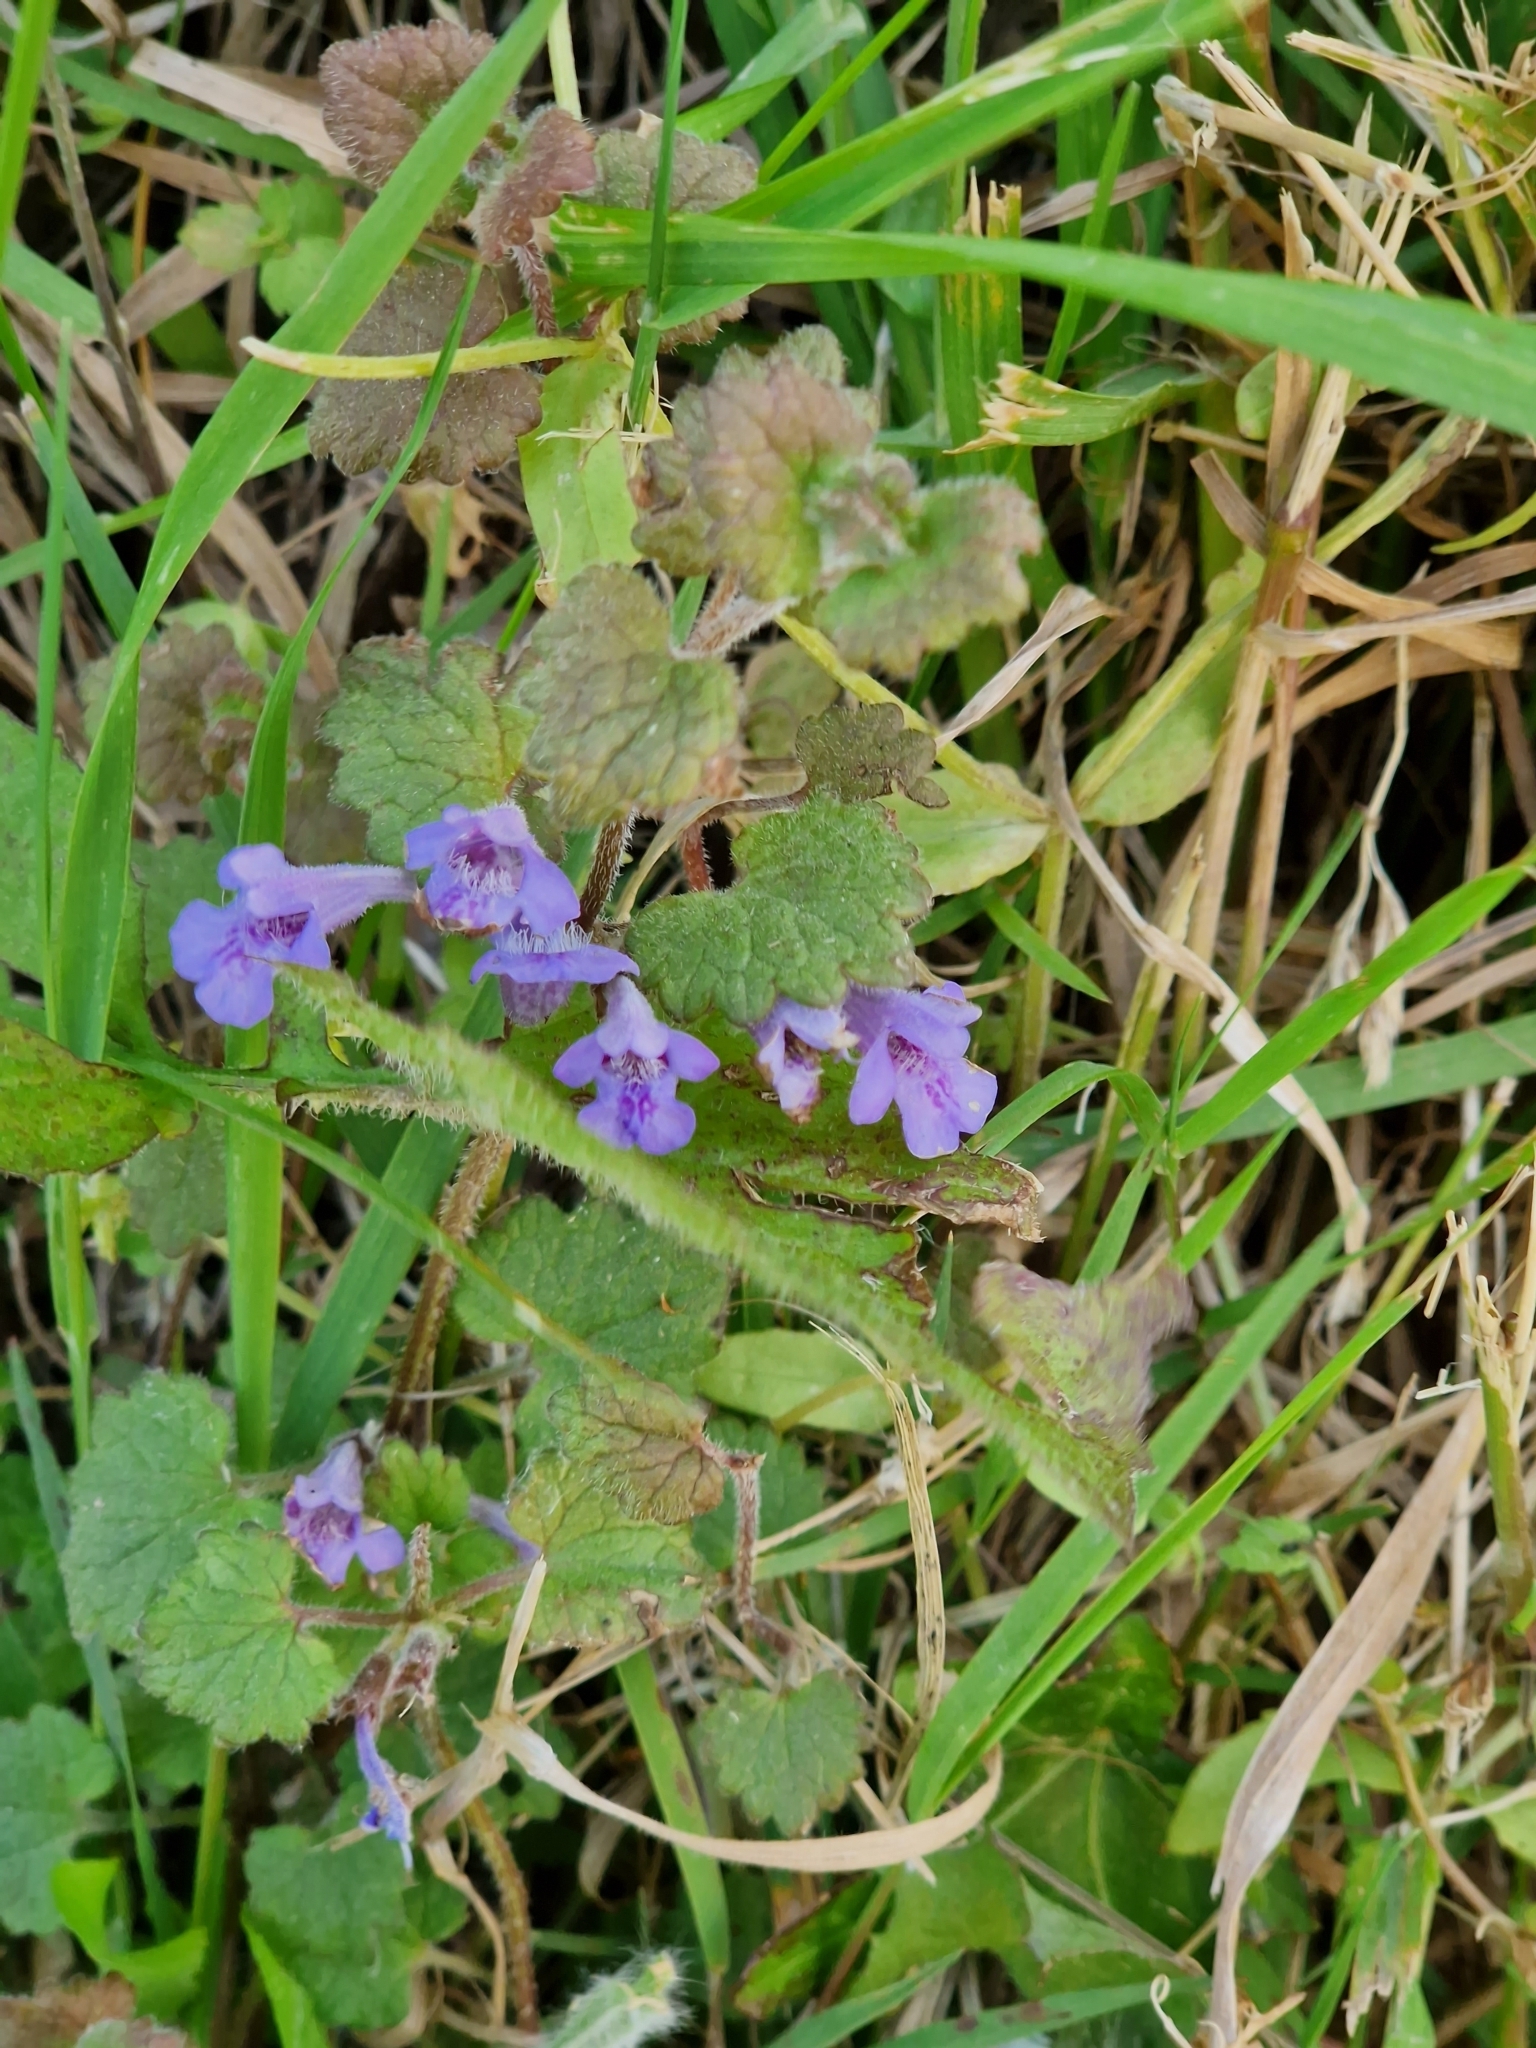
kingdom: Plantae
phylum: Tracheophyta
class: Magnoliopsida
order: Lamiales
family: Lamiaceae
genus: Glechoma
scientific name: Glechoma hederacea
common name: Ground ivy
